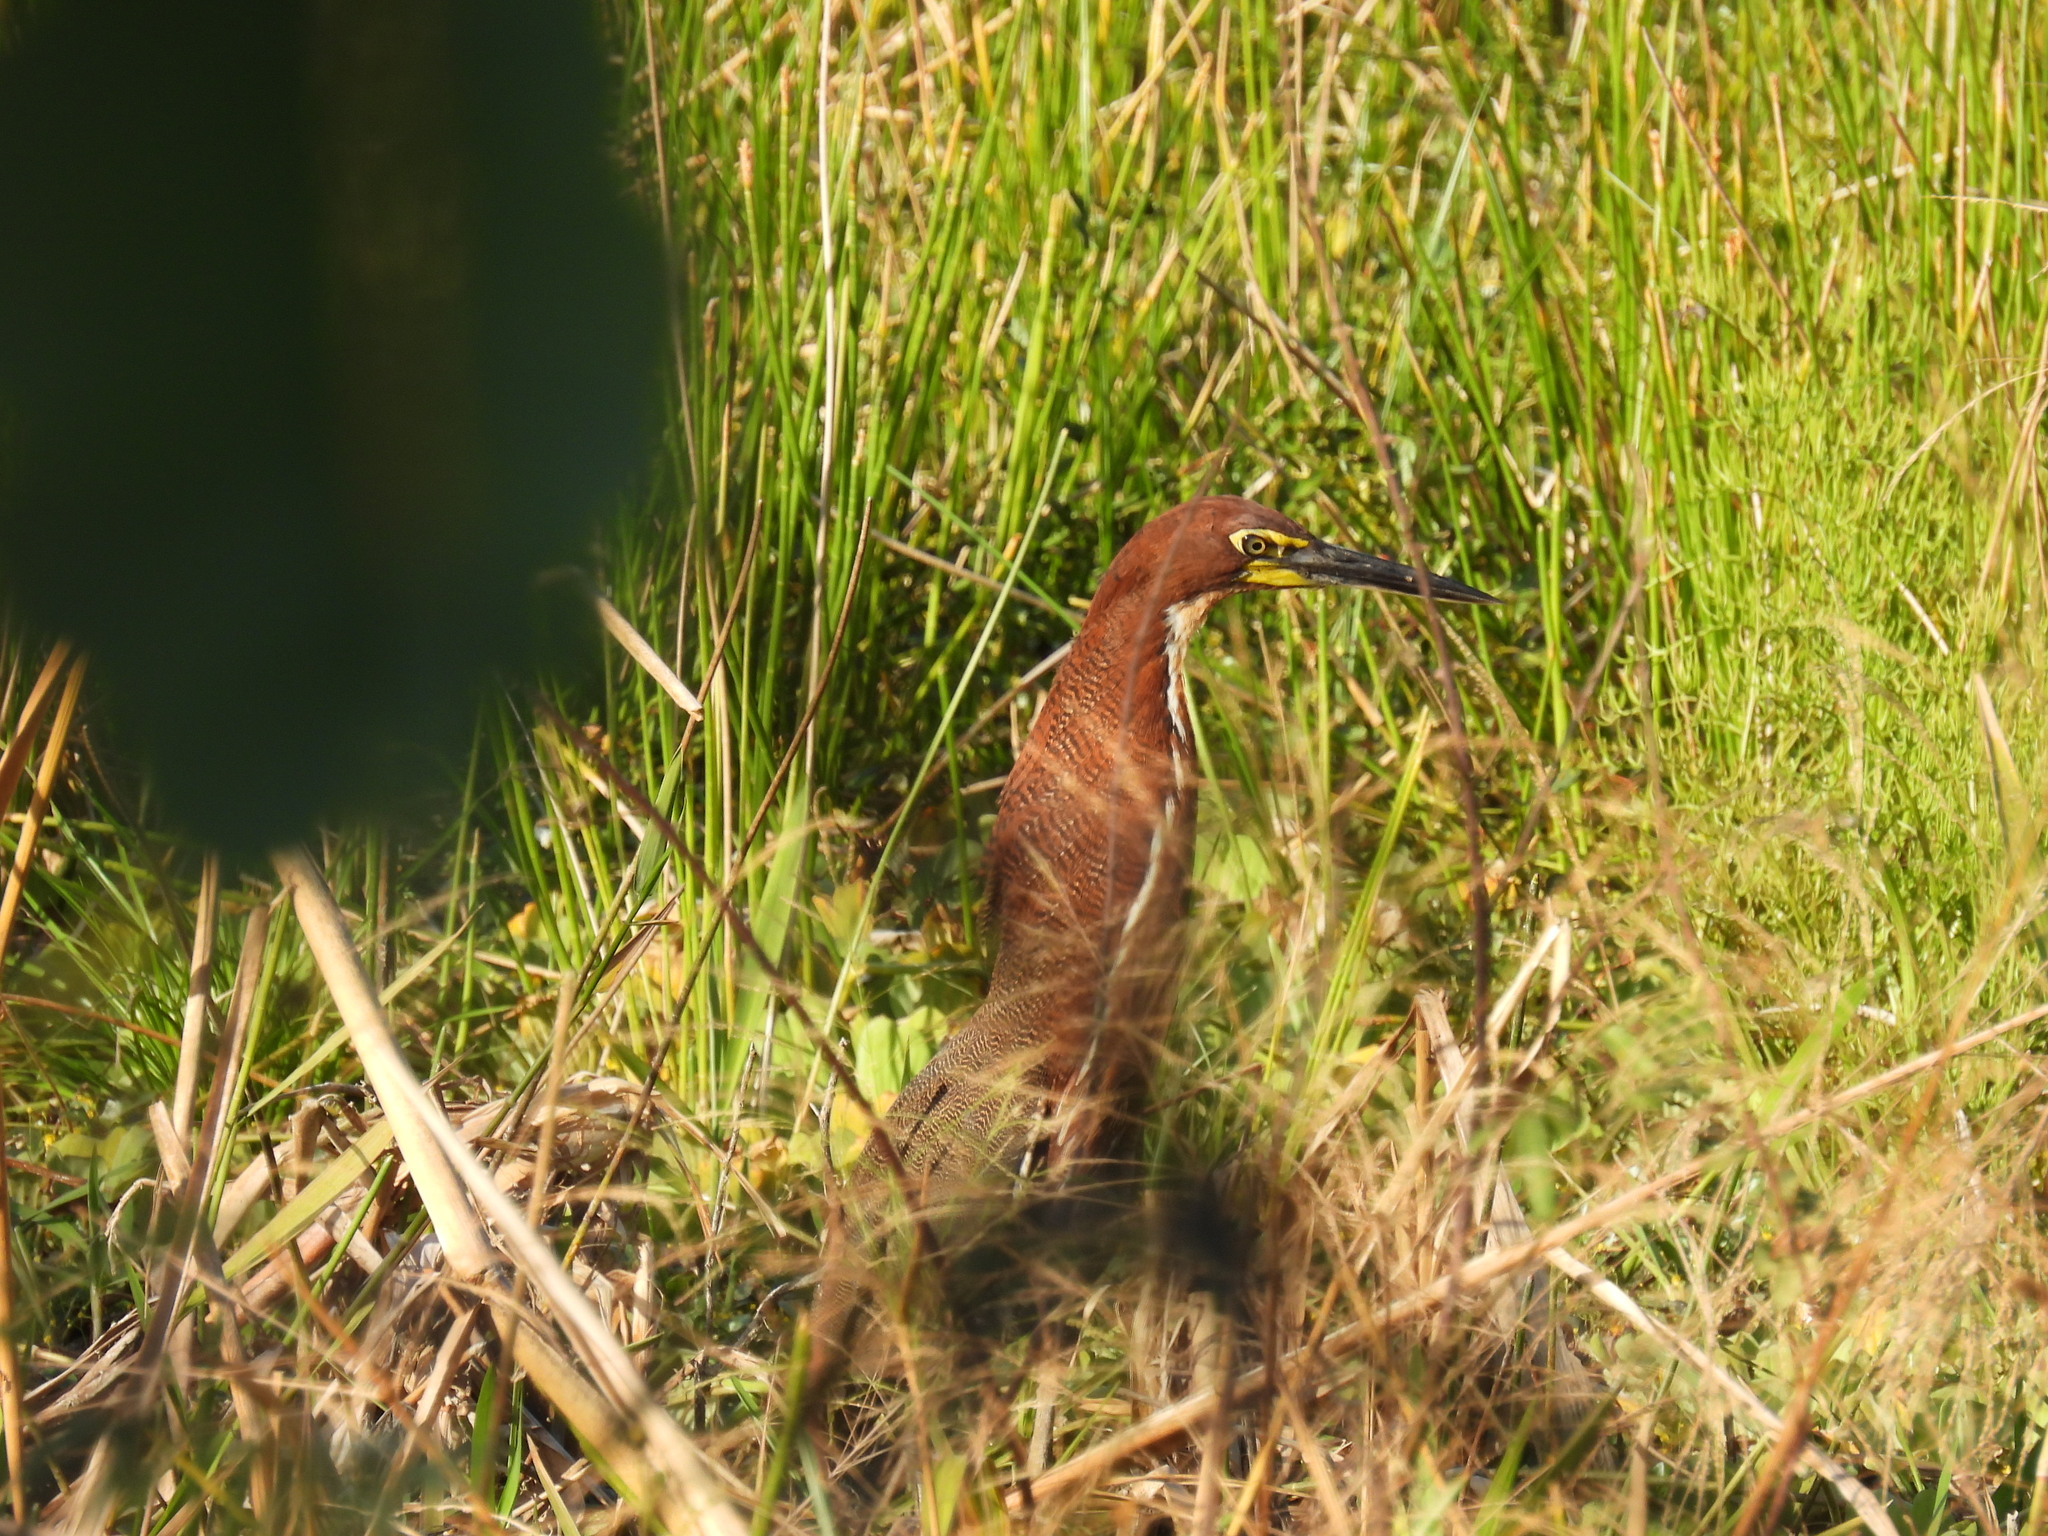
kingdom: Animalia
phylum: Chordata
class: Aves
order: Pelecaniformes
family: Ardeidae
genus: Tigrisoma
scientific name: Tigrisoma lineatum
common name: Rufescent tiger-heron
